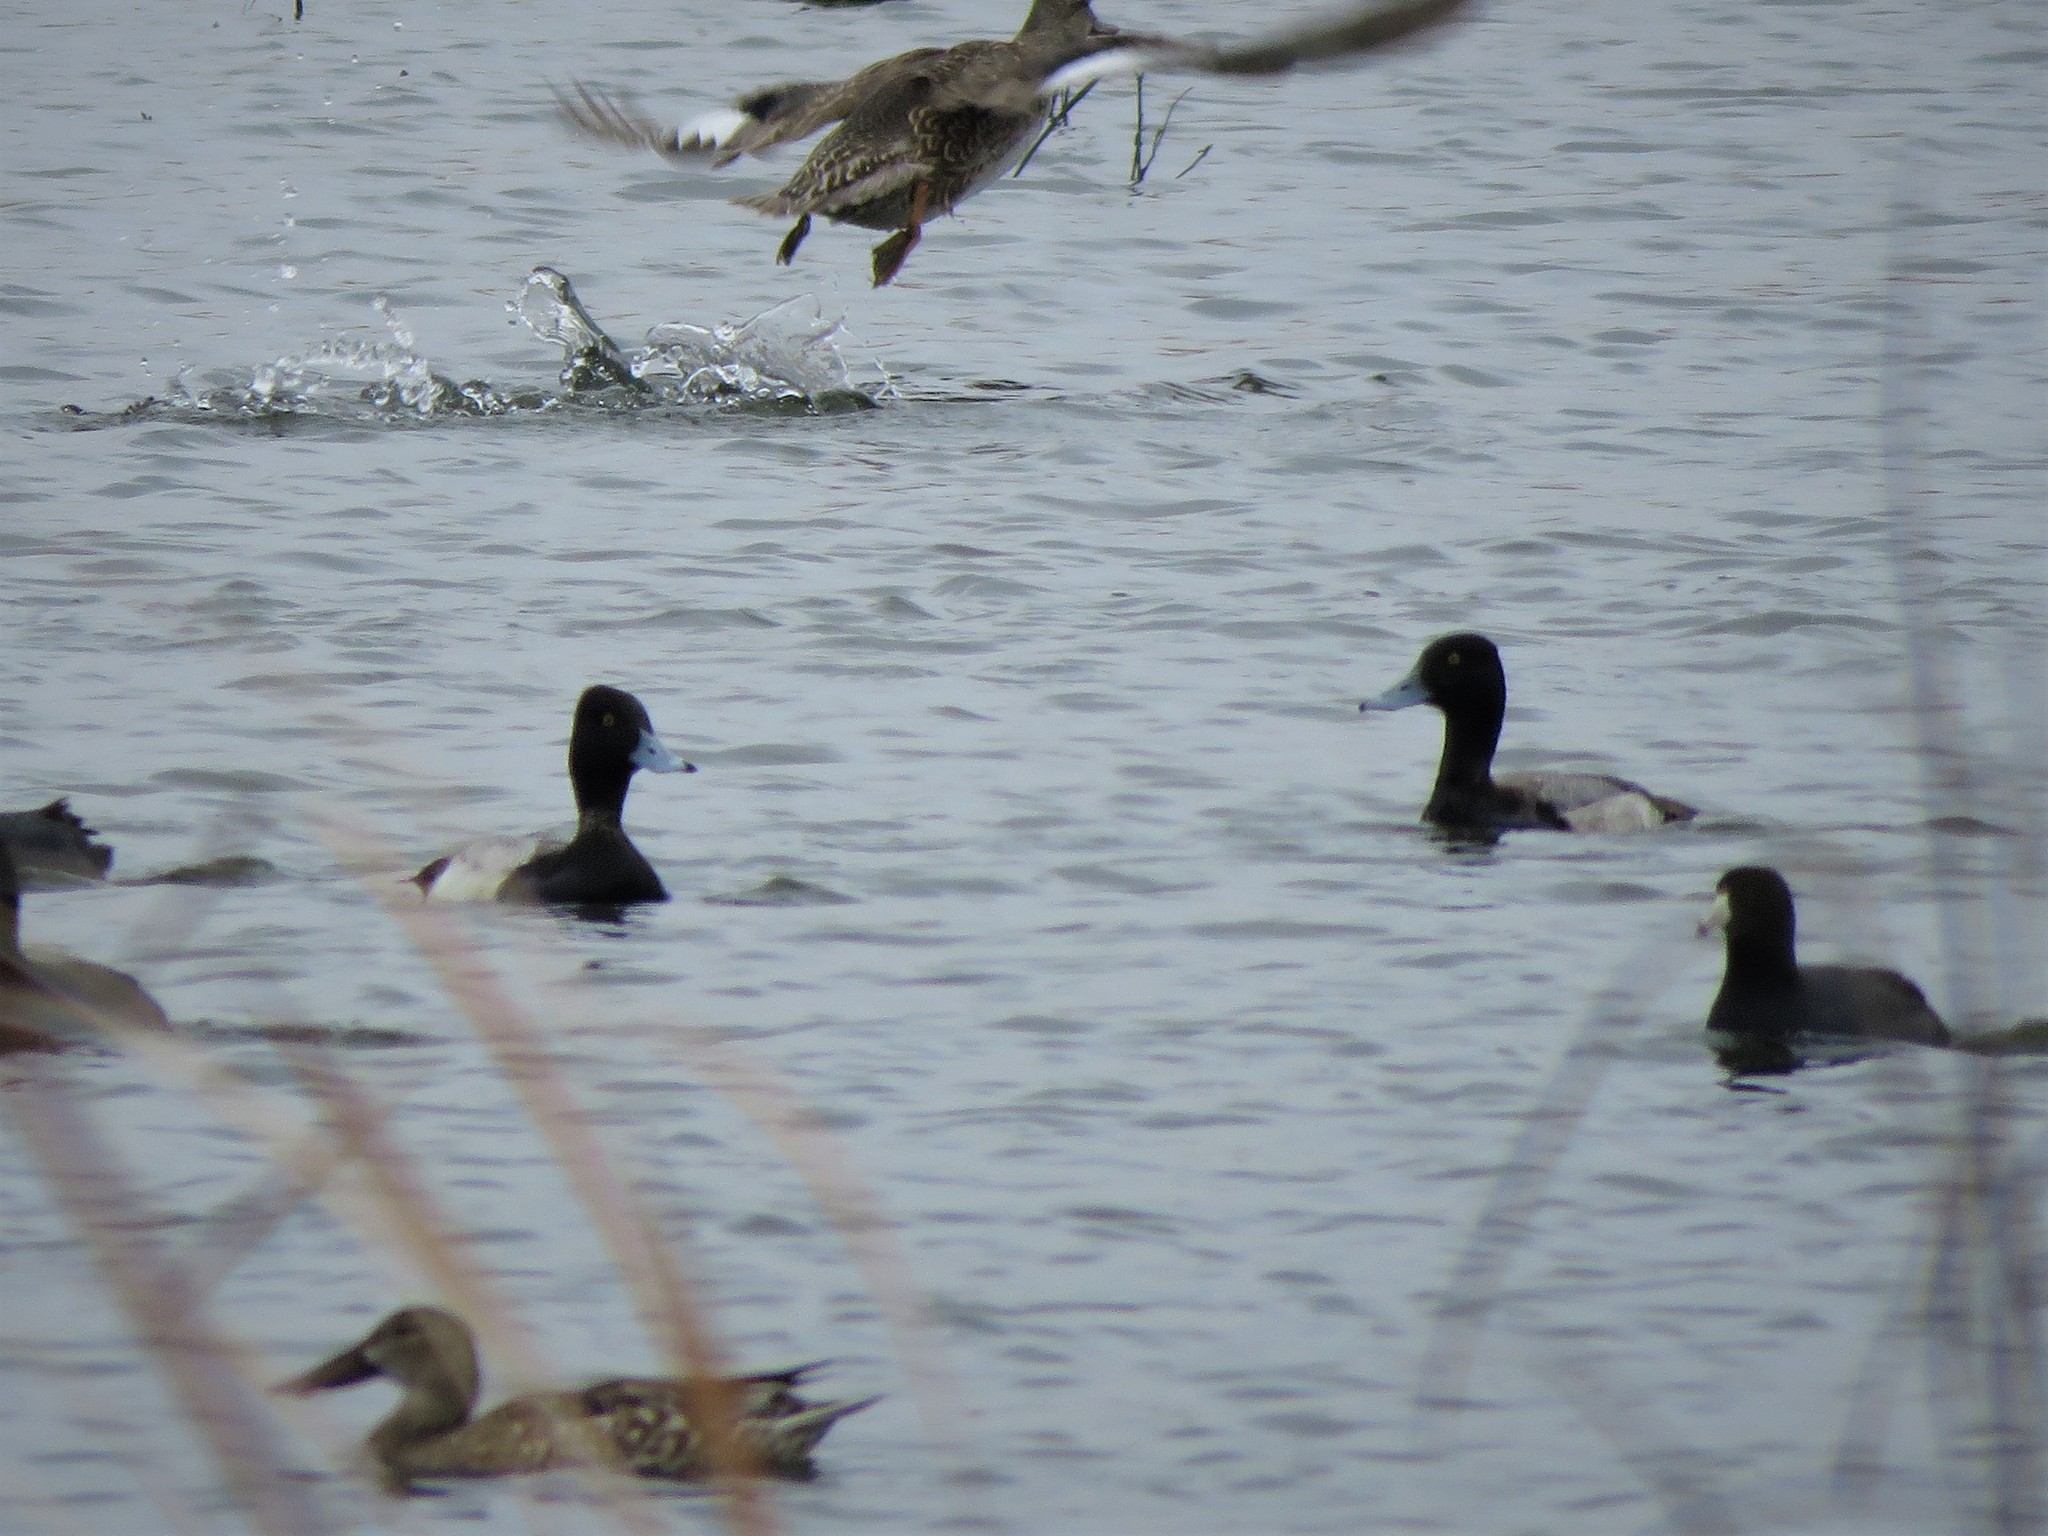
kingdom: Animalia
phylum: Chordata
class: Aves
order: Anseriformes
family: Anatidae
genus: Aythya
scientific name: Aythya affinis
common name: Lesser scaup
